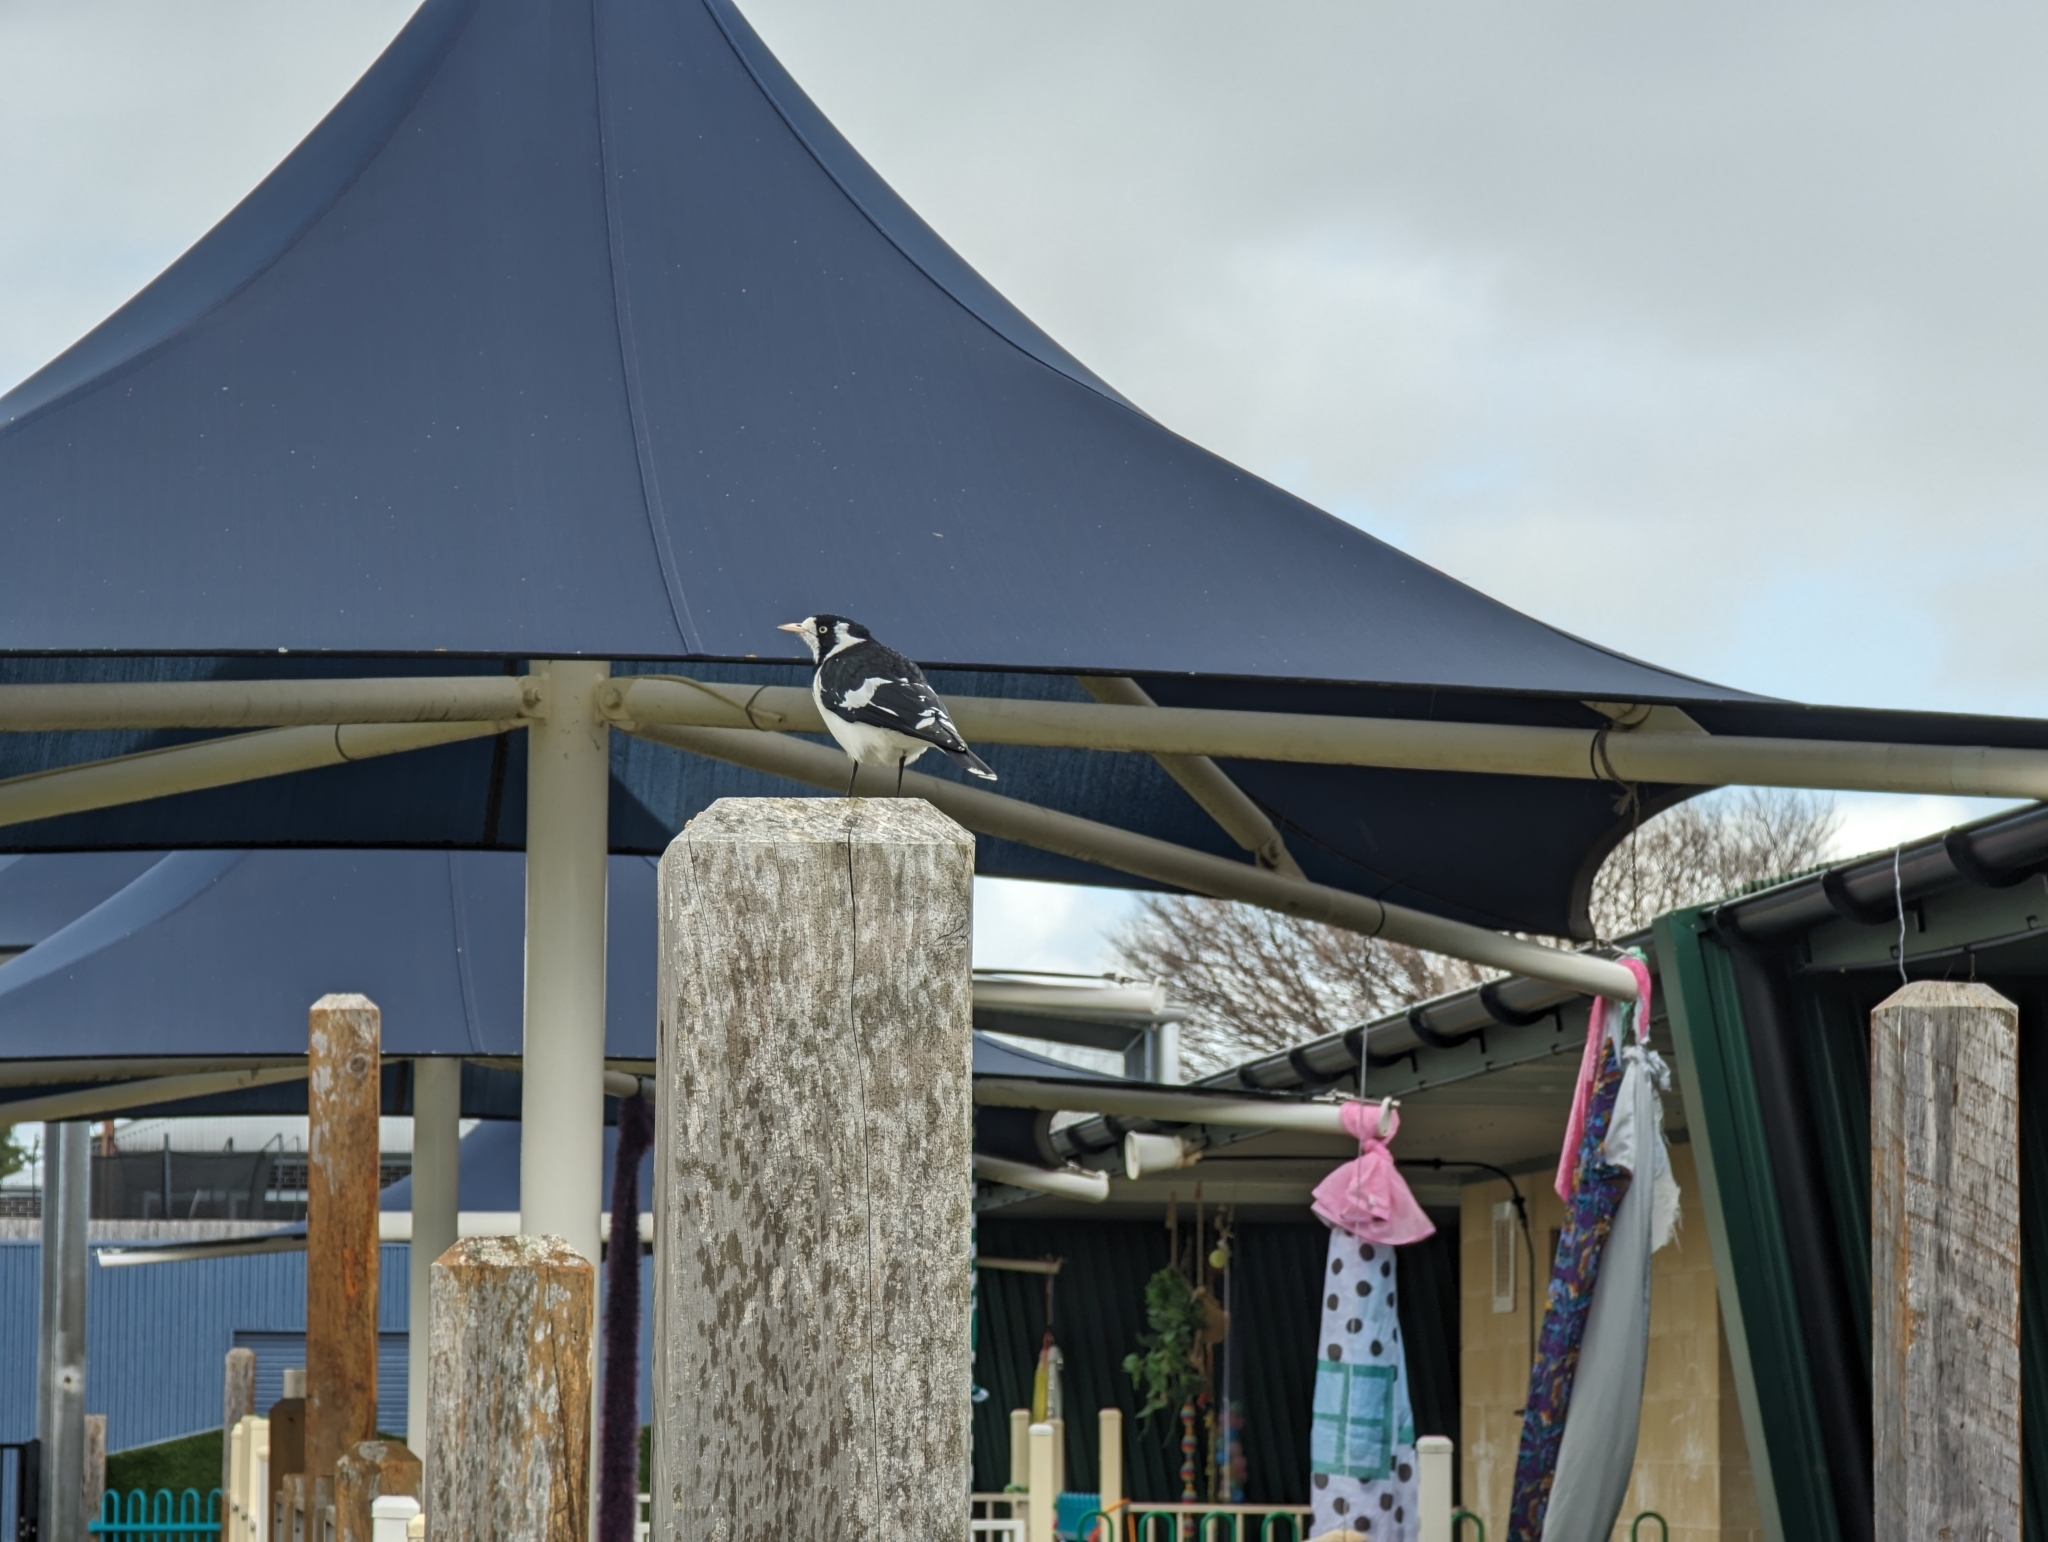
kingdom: Animalia
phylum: Chordata
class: Aves
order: Passeriformes
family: Monarchidae
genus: Grallina
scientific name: Grallina cyanoleuca
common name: Magpie-lark
